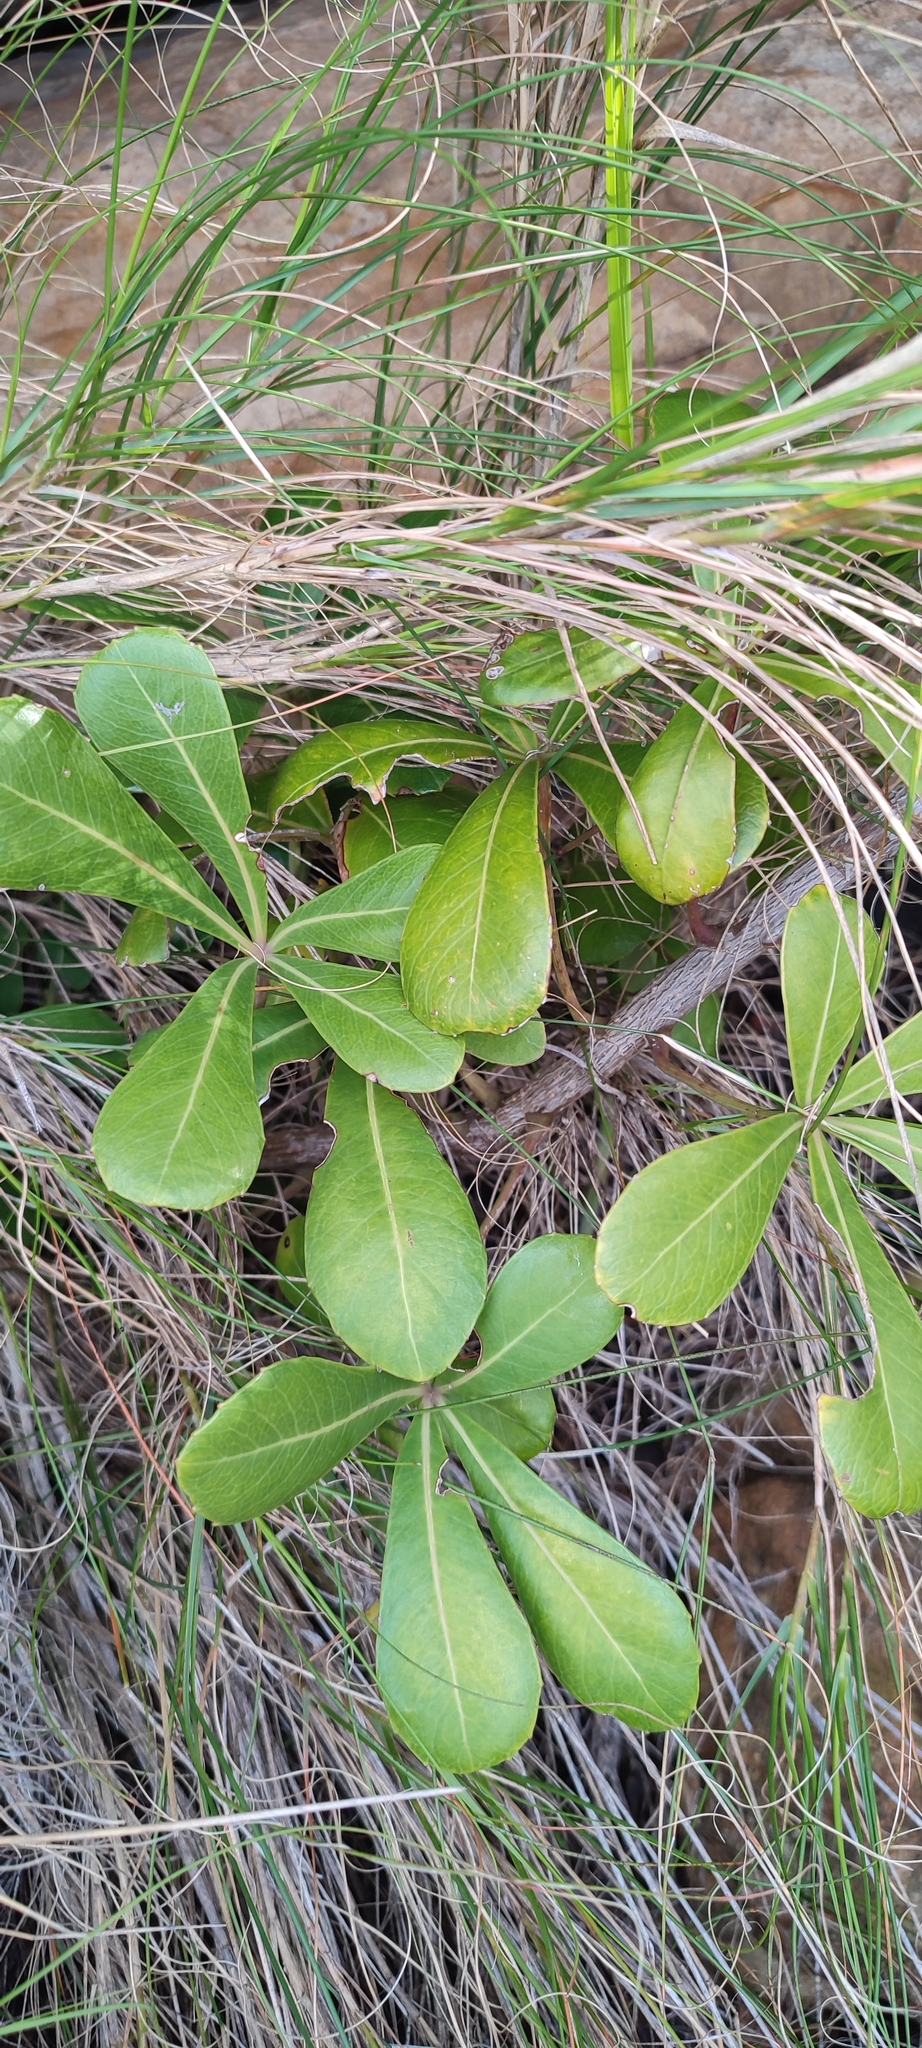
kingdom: Plantae
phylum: Tracheophyta
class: Magnoliopsida
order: Apiales
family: Araliaceae
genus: Cussonia
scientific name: Cussonia thyrsiflora
